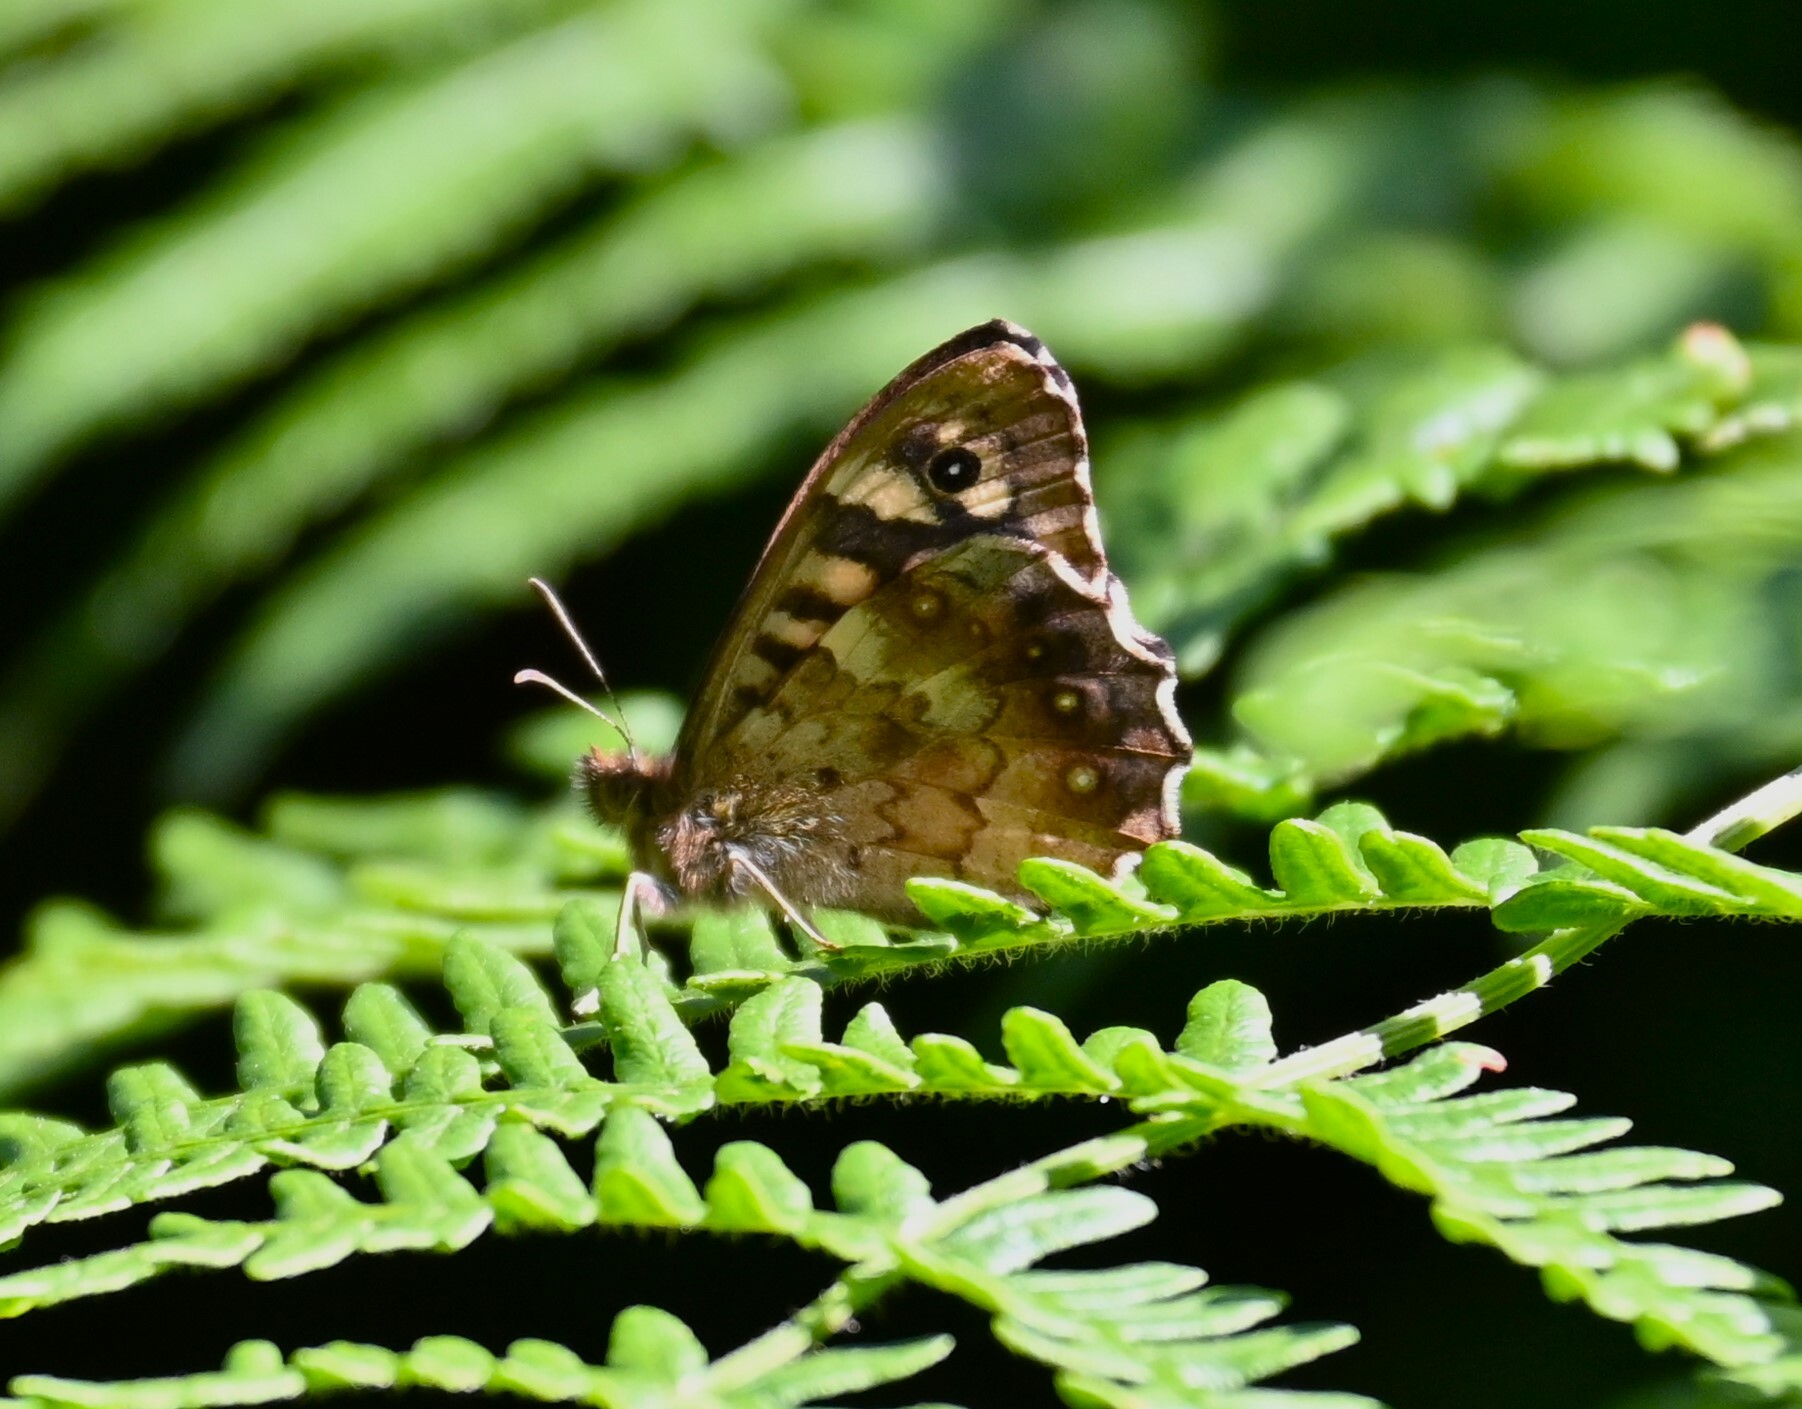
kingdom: Animalia
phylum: Arthropoda
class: Insecta
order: Lepidoptera
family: Nymphalidae
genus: Pararge
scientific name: Pararge aegeria
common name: Speckled wood
